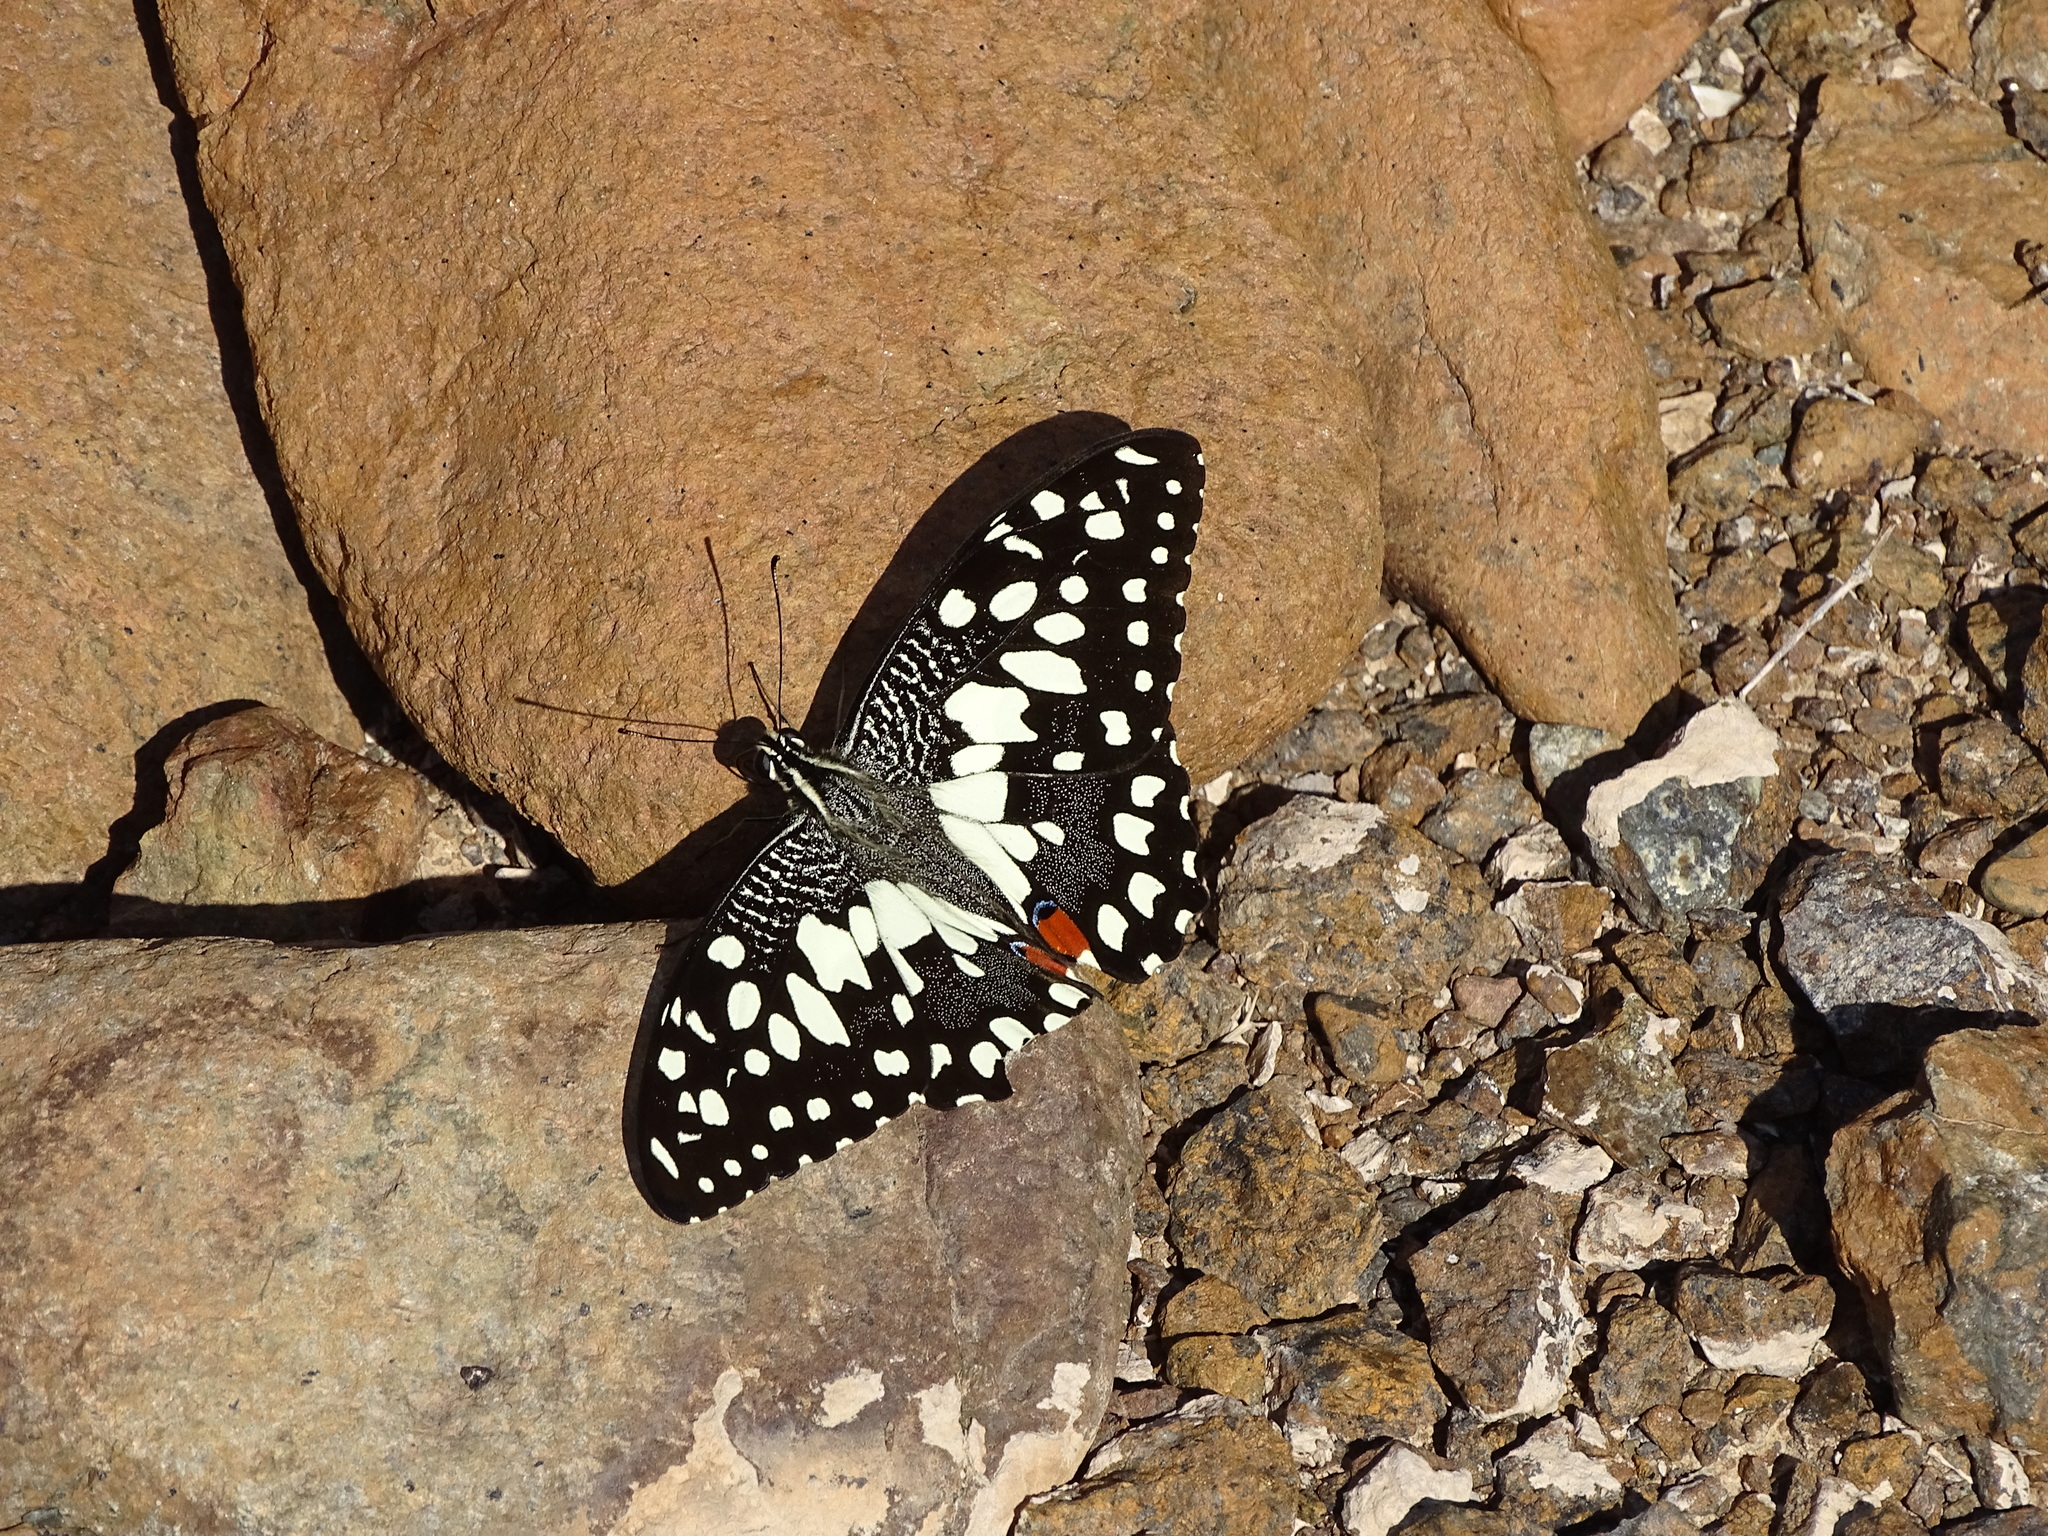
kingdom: Animalia
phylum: Arthropoda
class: Insecta
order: Lepidoptera
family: Papilionidae
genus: Papilio
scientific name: Papilio demoleus
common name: Lime butterfly
